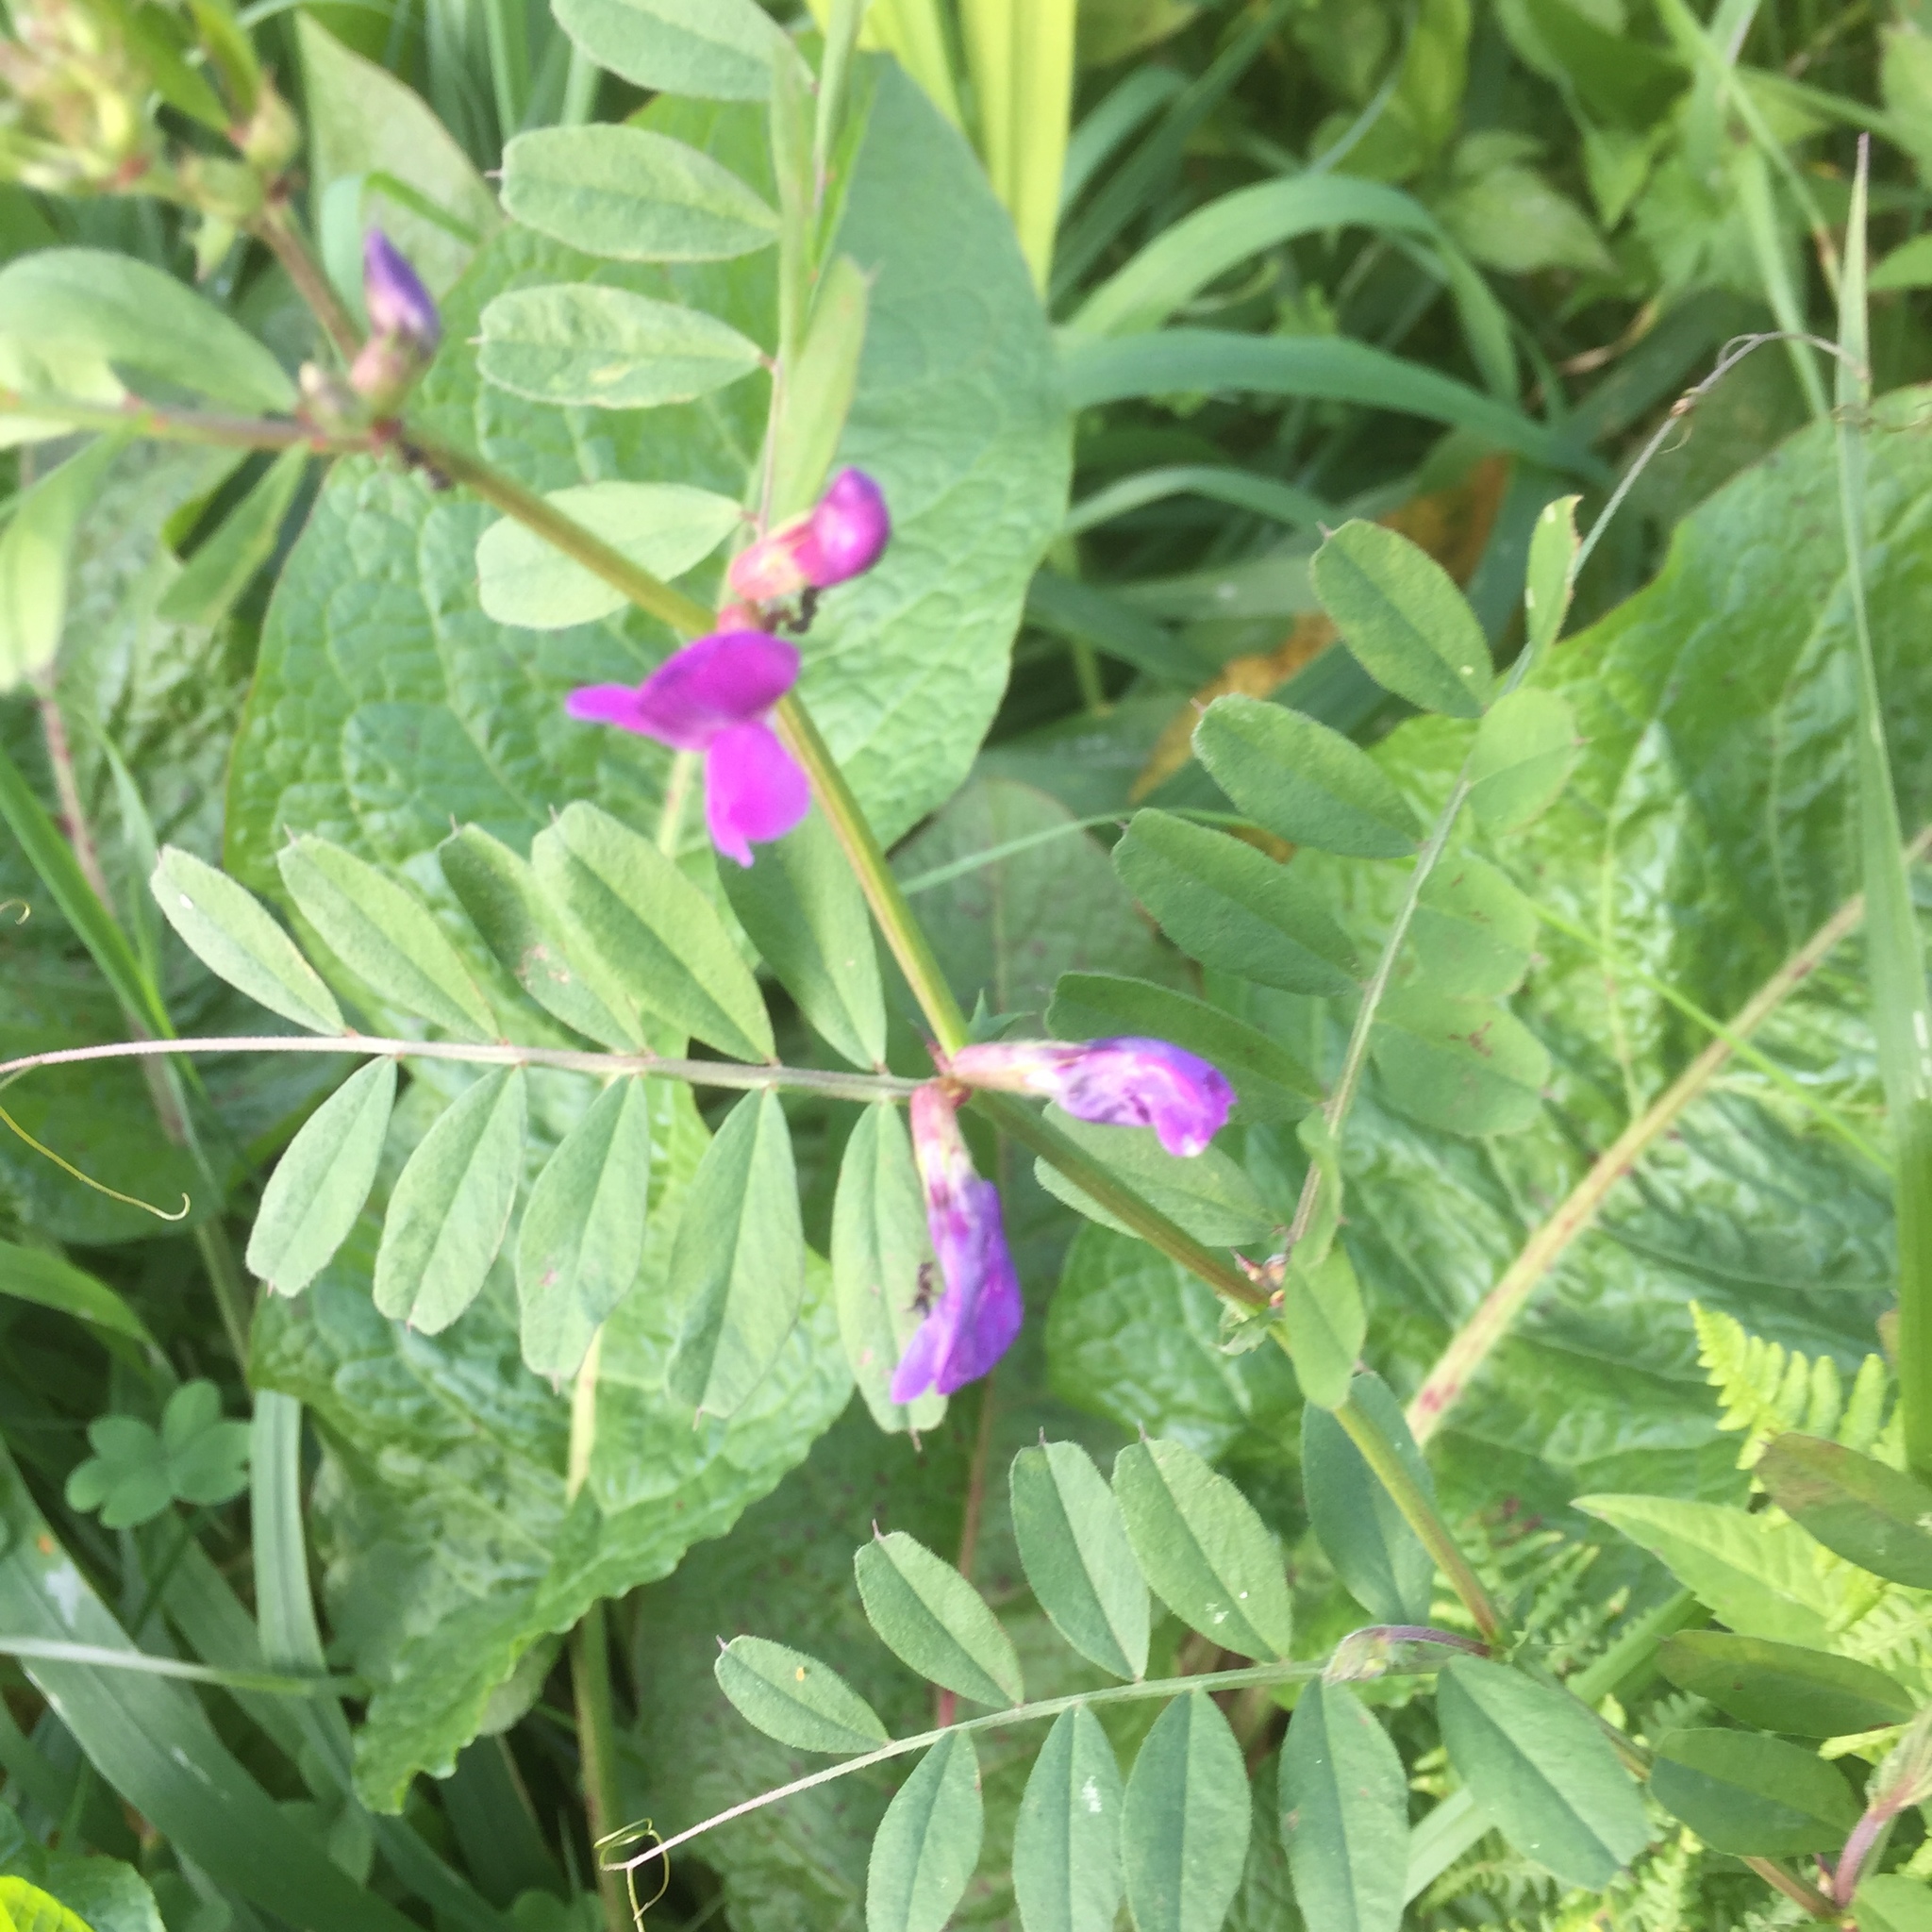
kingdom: Plantae
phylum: Tracheophyta
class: Magnoliopsida
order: Fabales
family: Fabaceae
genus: Vicia
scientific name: Vicia sativa
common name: Garden vetch
